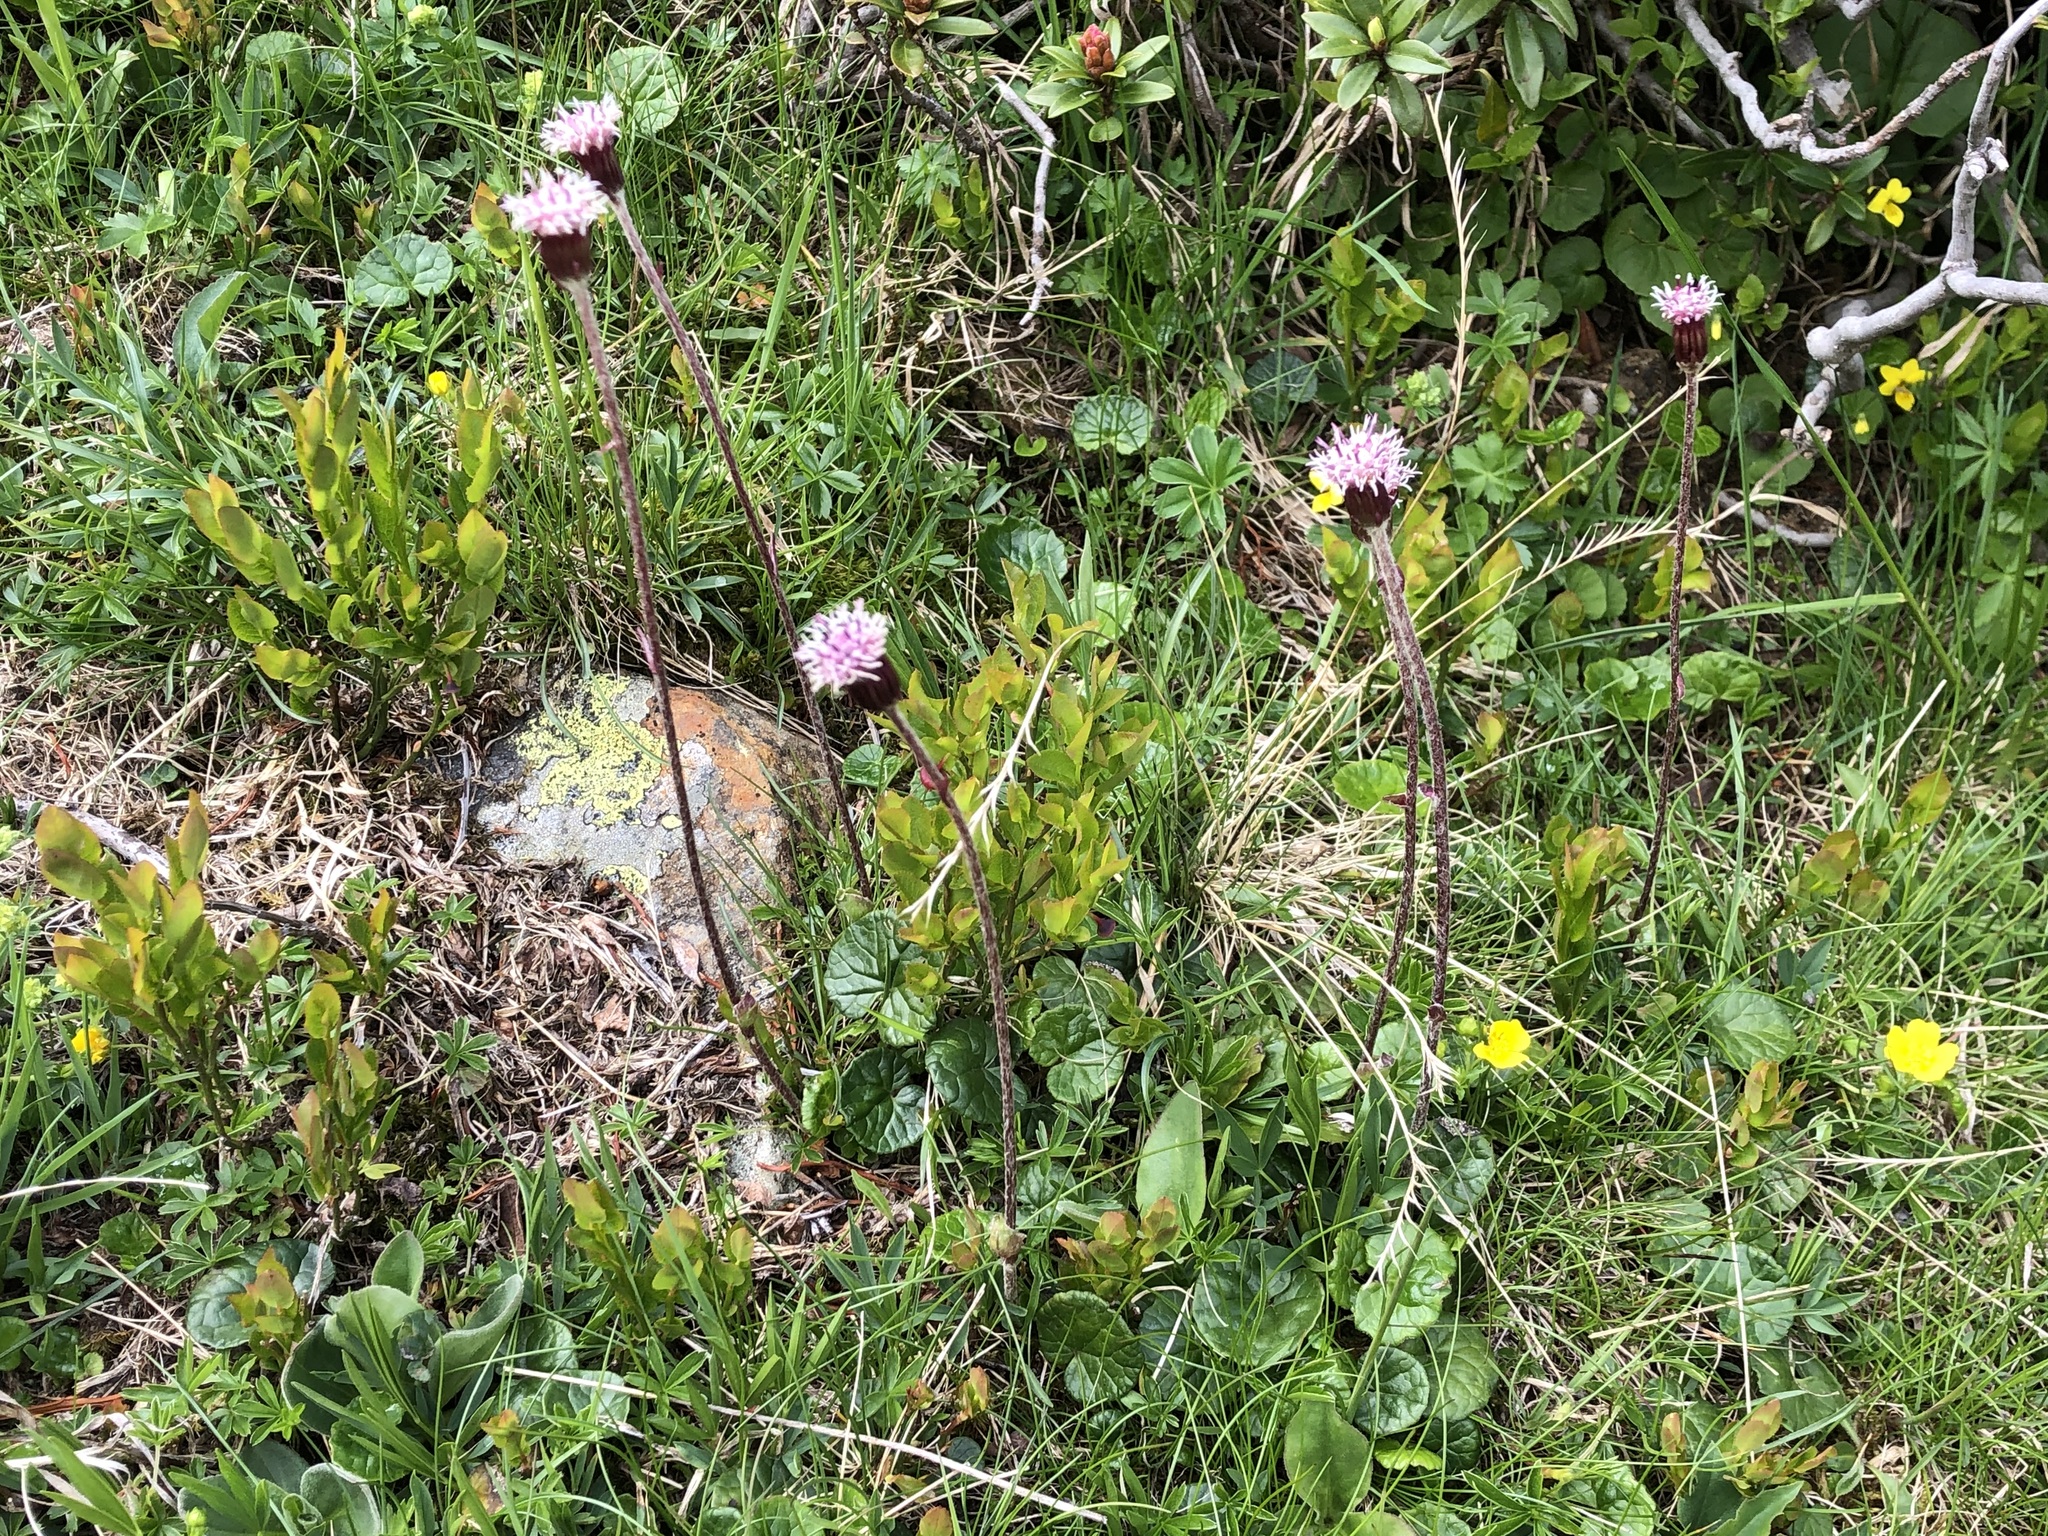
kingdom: Plantae
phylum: Tracheophyta
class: Magnoliopsida
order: Asterales
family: Asteraceae
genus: Homogyne
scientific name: Homogyne alpina
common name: Purple colt's-foot
